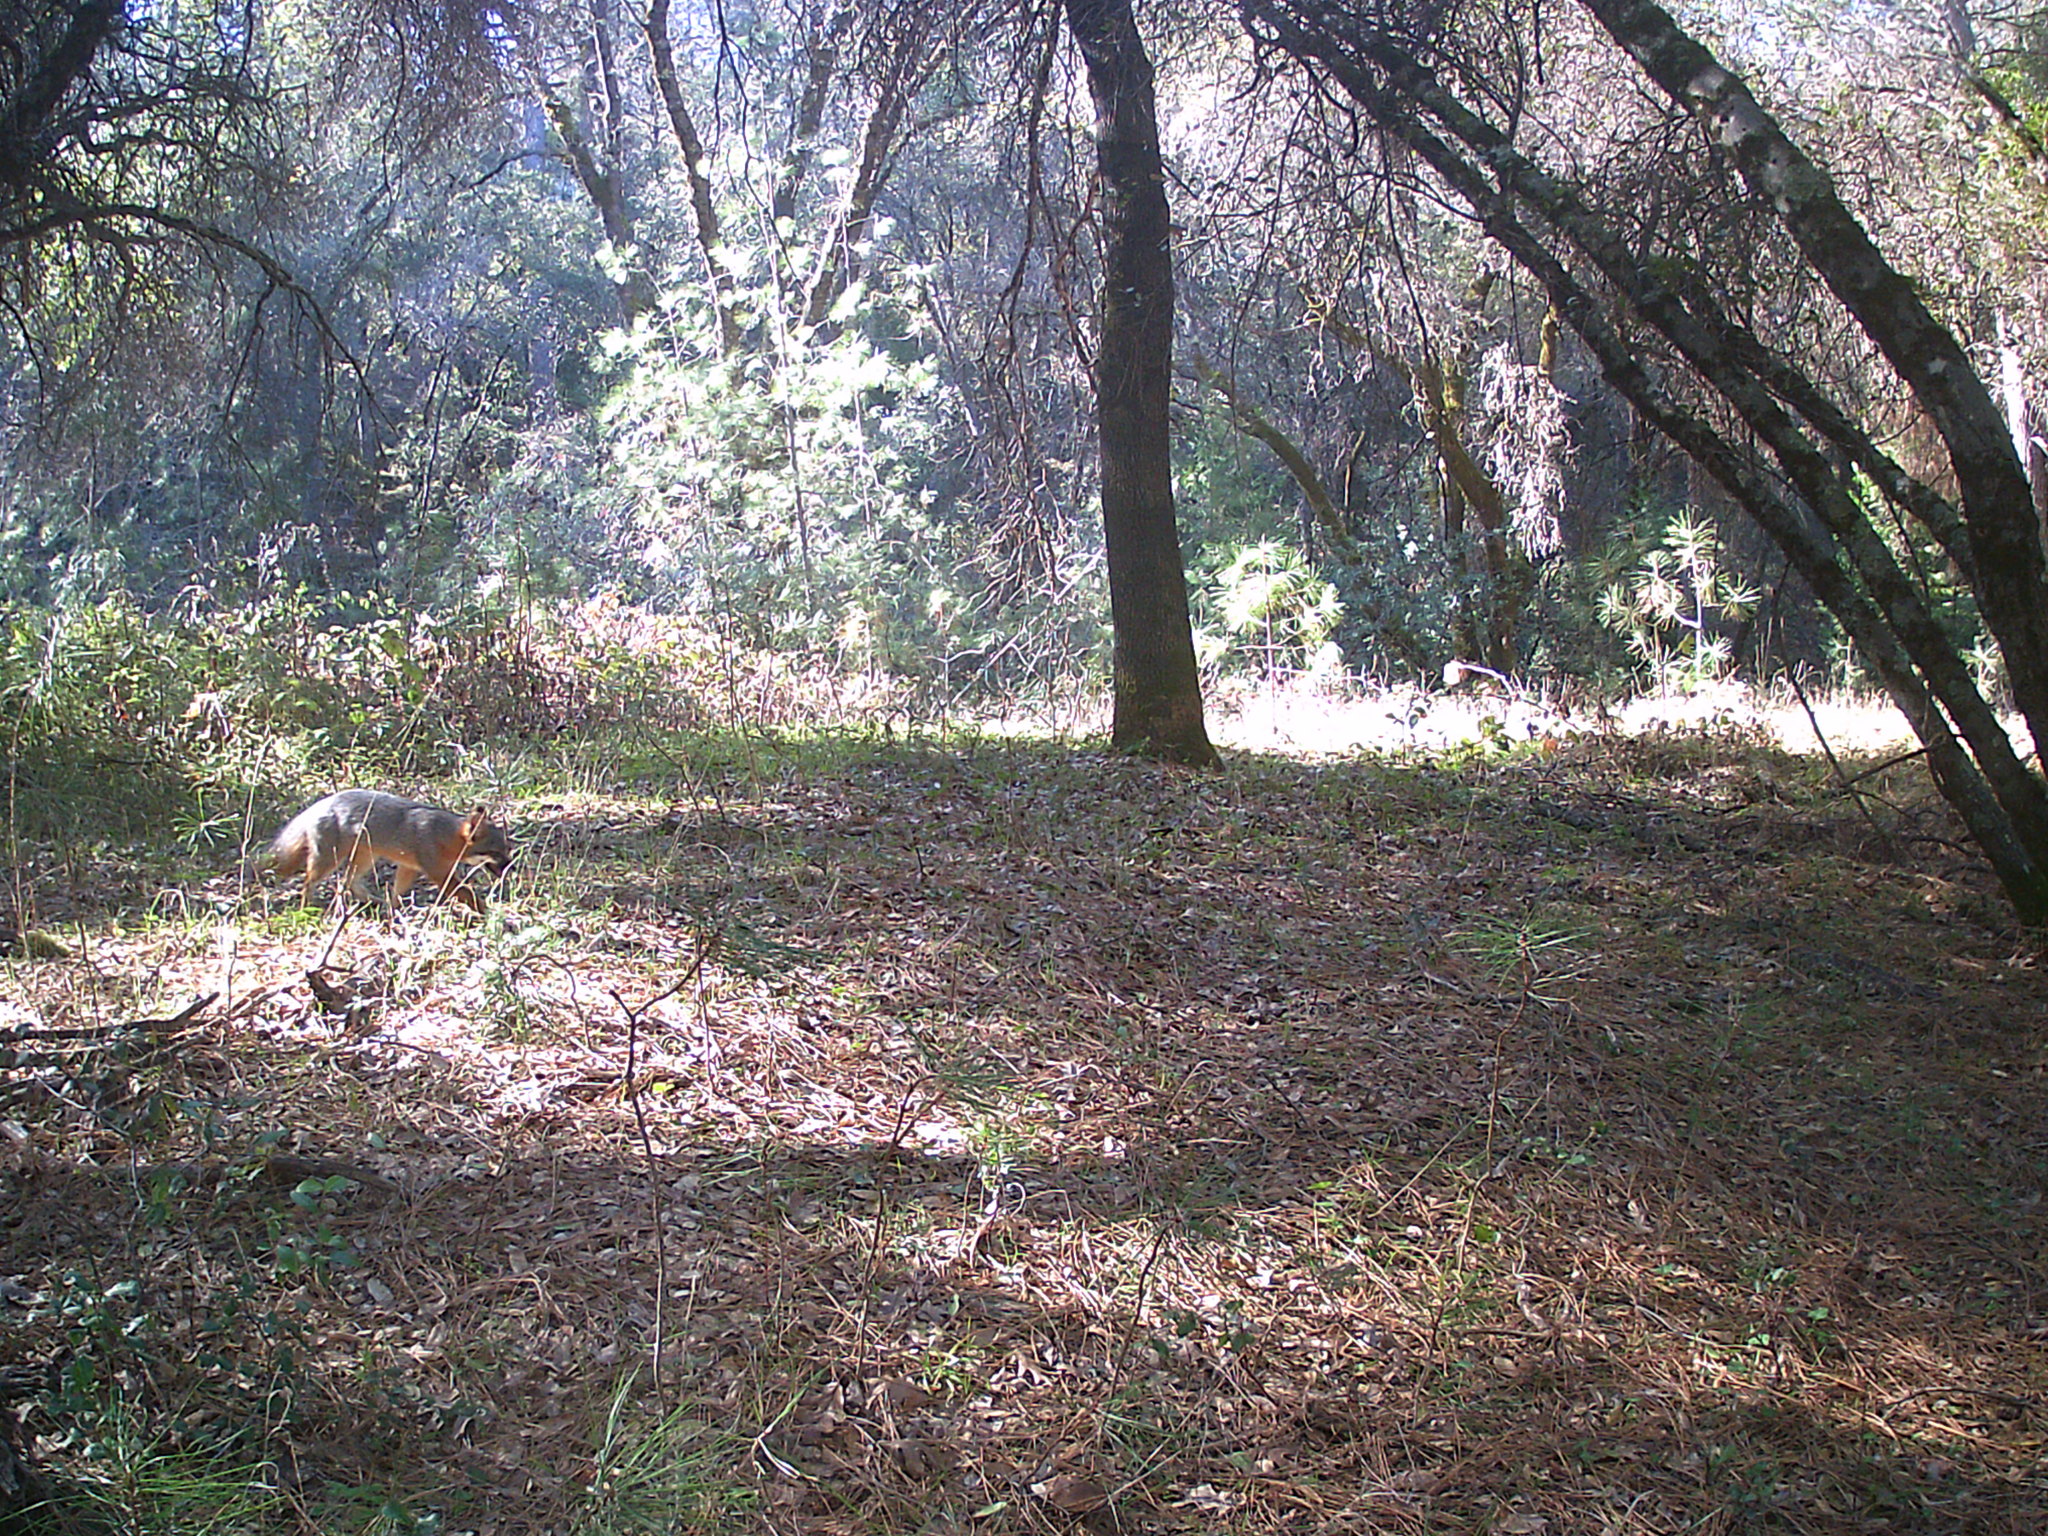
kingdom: Animalia
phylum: Chordata
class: Mammalia
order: Carnivora
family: Canidae
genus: Urocyon
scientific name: Urocyon cinereoargenteus
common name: Gray fox
